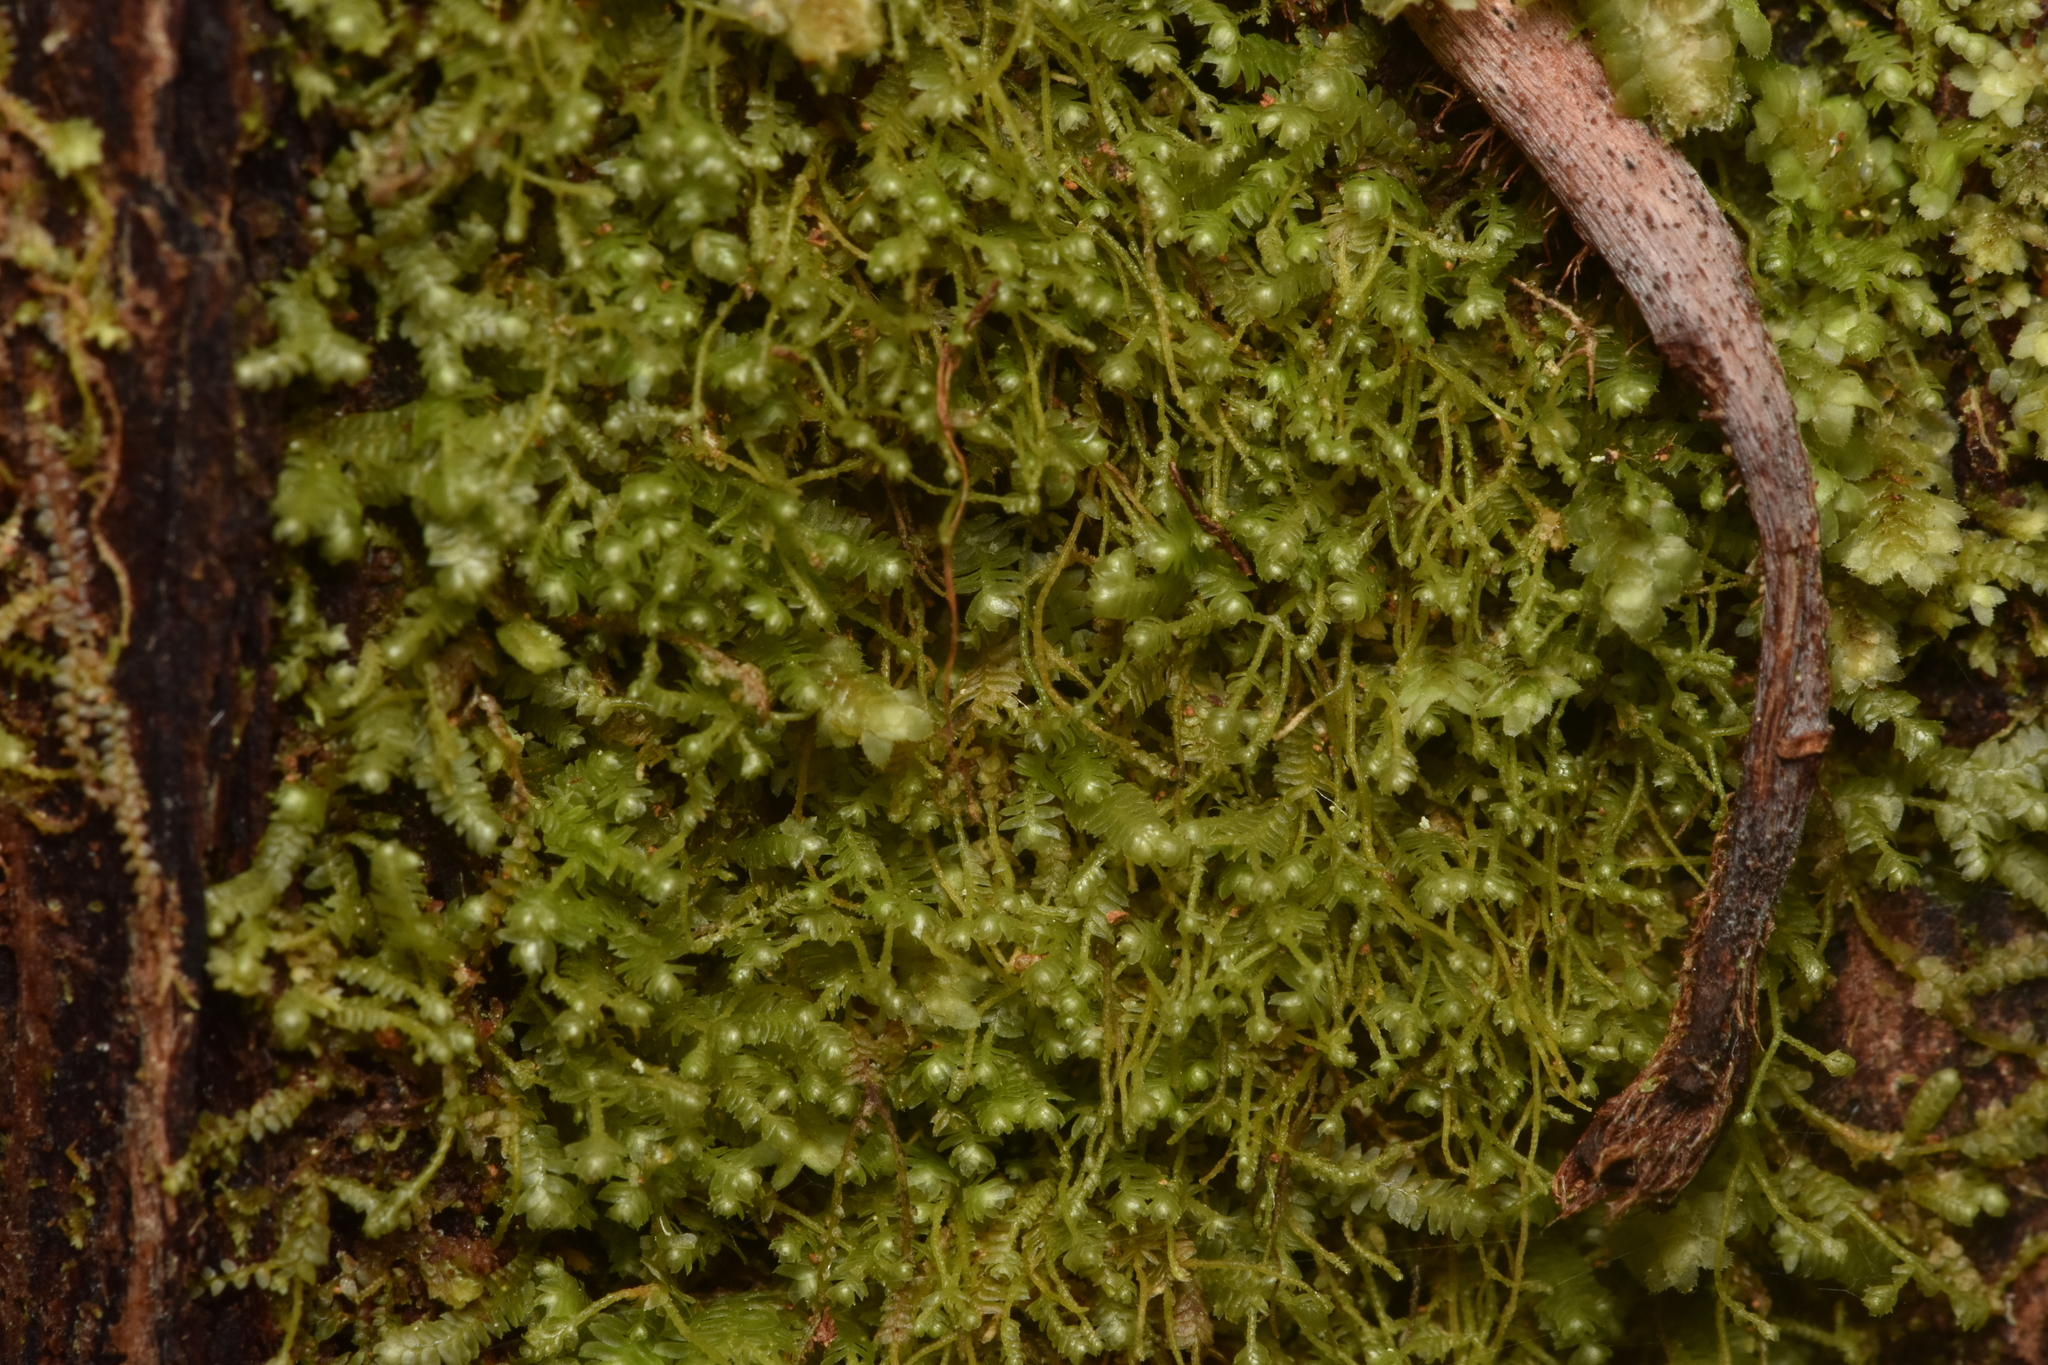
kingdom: Plantae
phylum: Marchantiophyta
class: Jungermanniopsida
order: Jungermanniales
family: Lepidoziaceae
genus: Bazzania
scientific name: Bazzania denudata
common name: Naked whipwort
